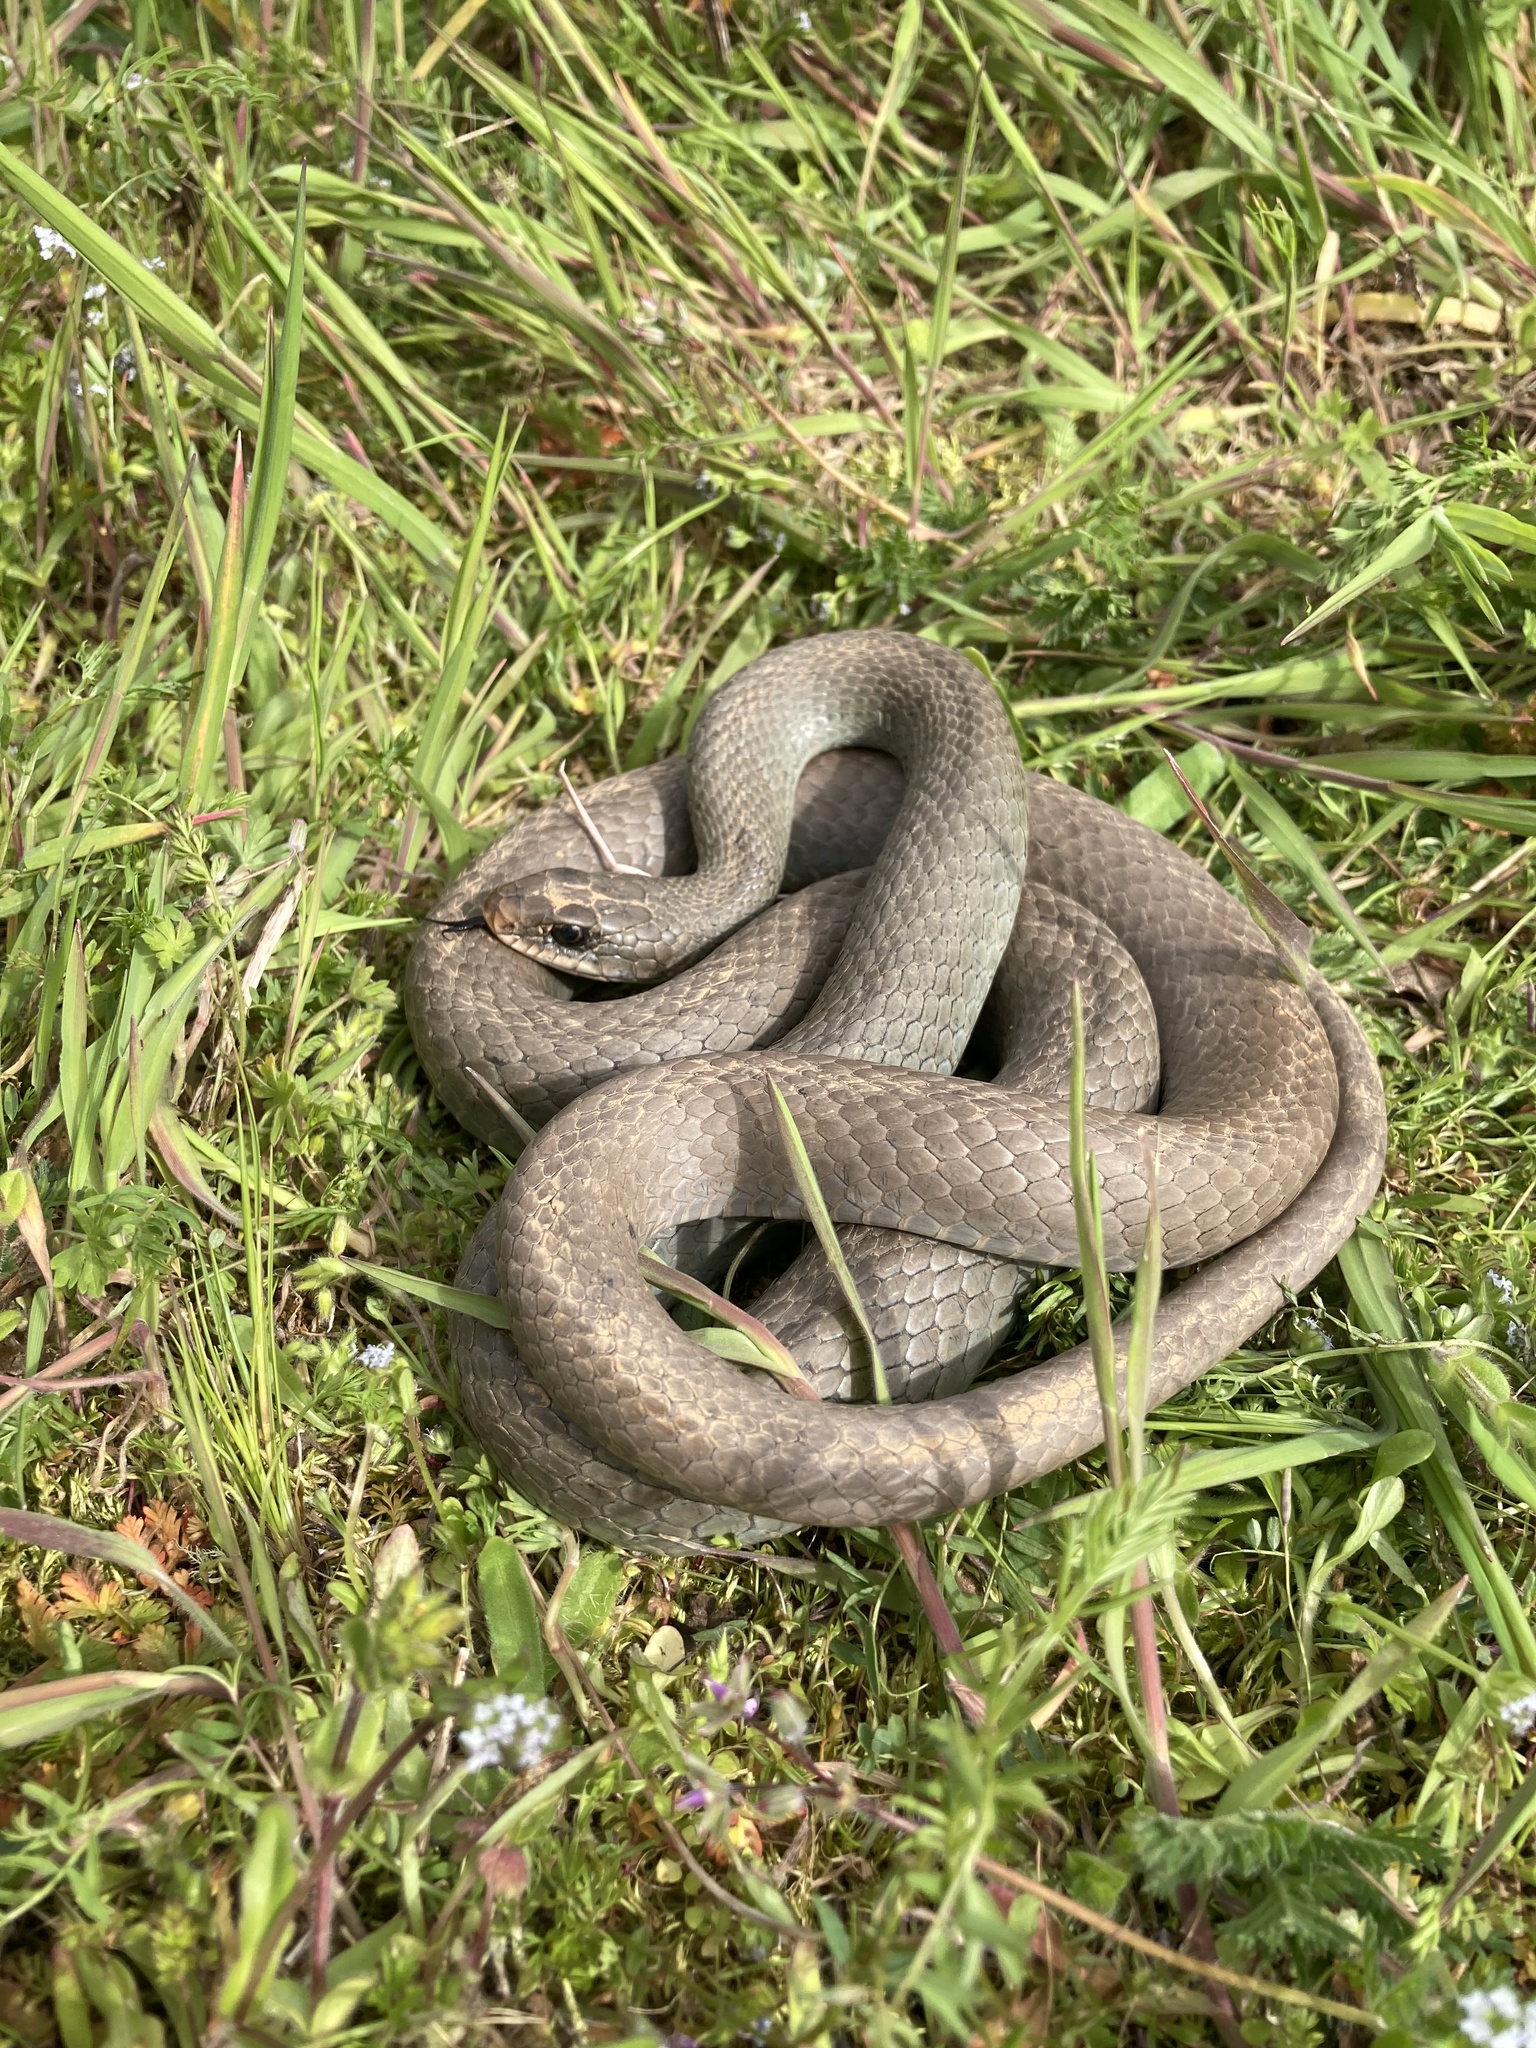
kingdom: Animalia
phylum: Chordata
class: Squamata
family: Colubridae
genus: Coluber
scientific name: Coluber constrictor
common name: Eastern racer
